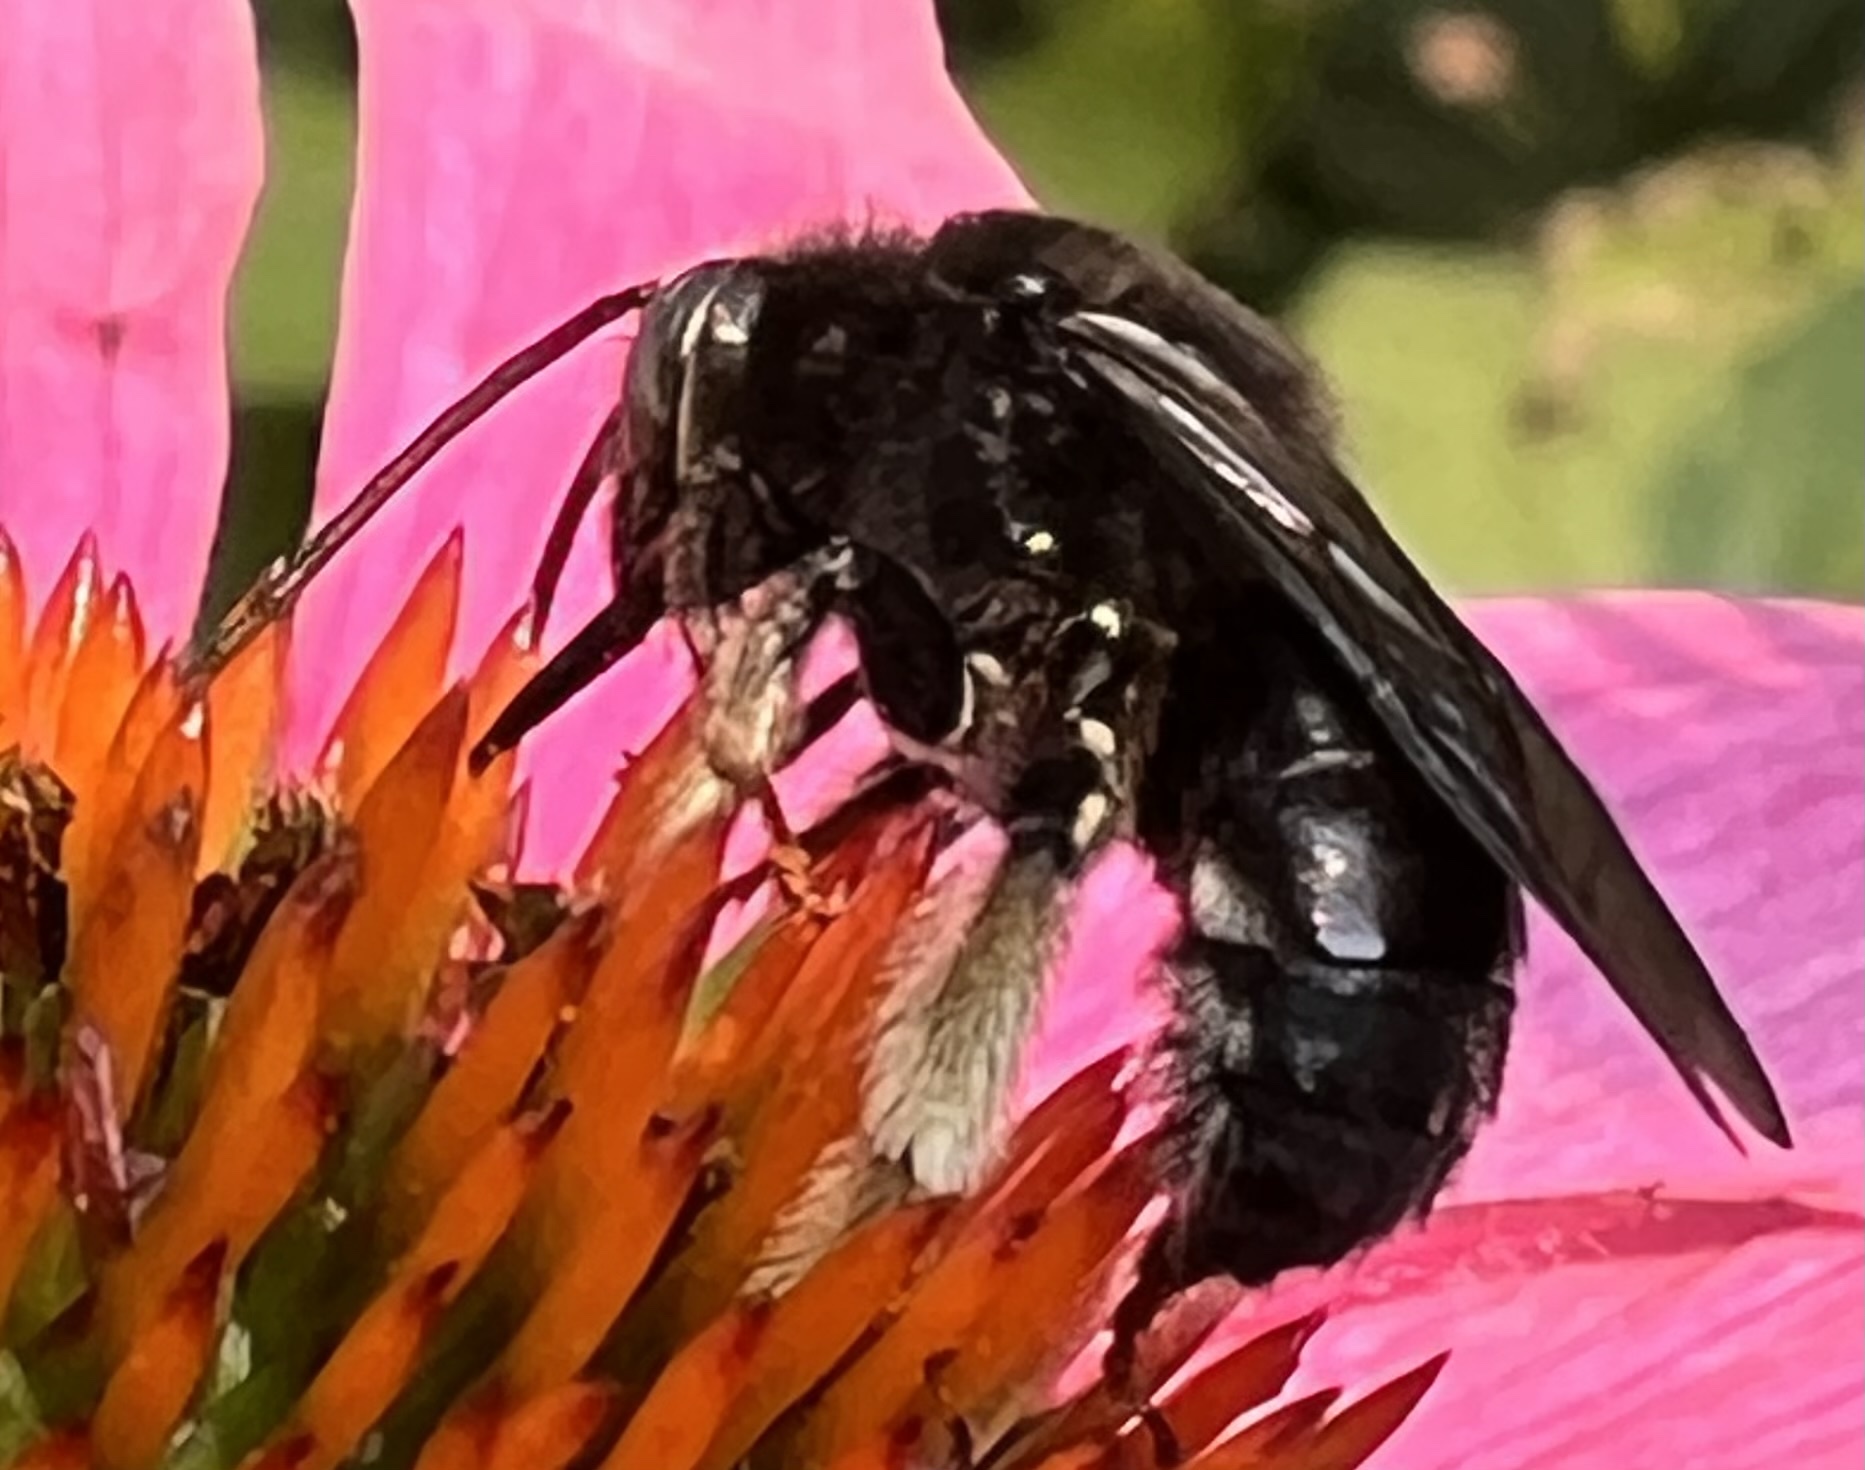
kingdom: Animalia
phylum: Arthropoda
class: Insecta
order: Hymenoptera
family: Apidae
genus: Melissodes
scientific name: Melissodes bimaculatus
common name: Two-spotted long-horned bee
